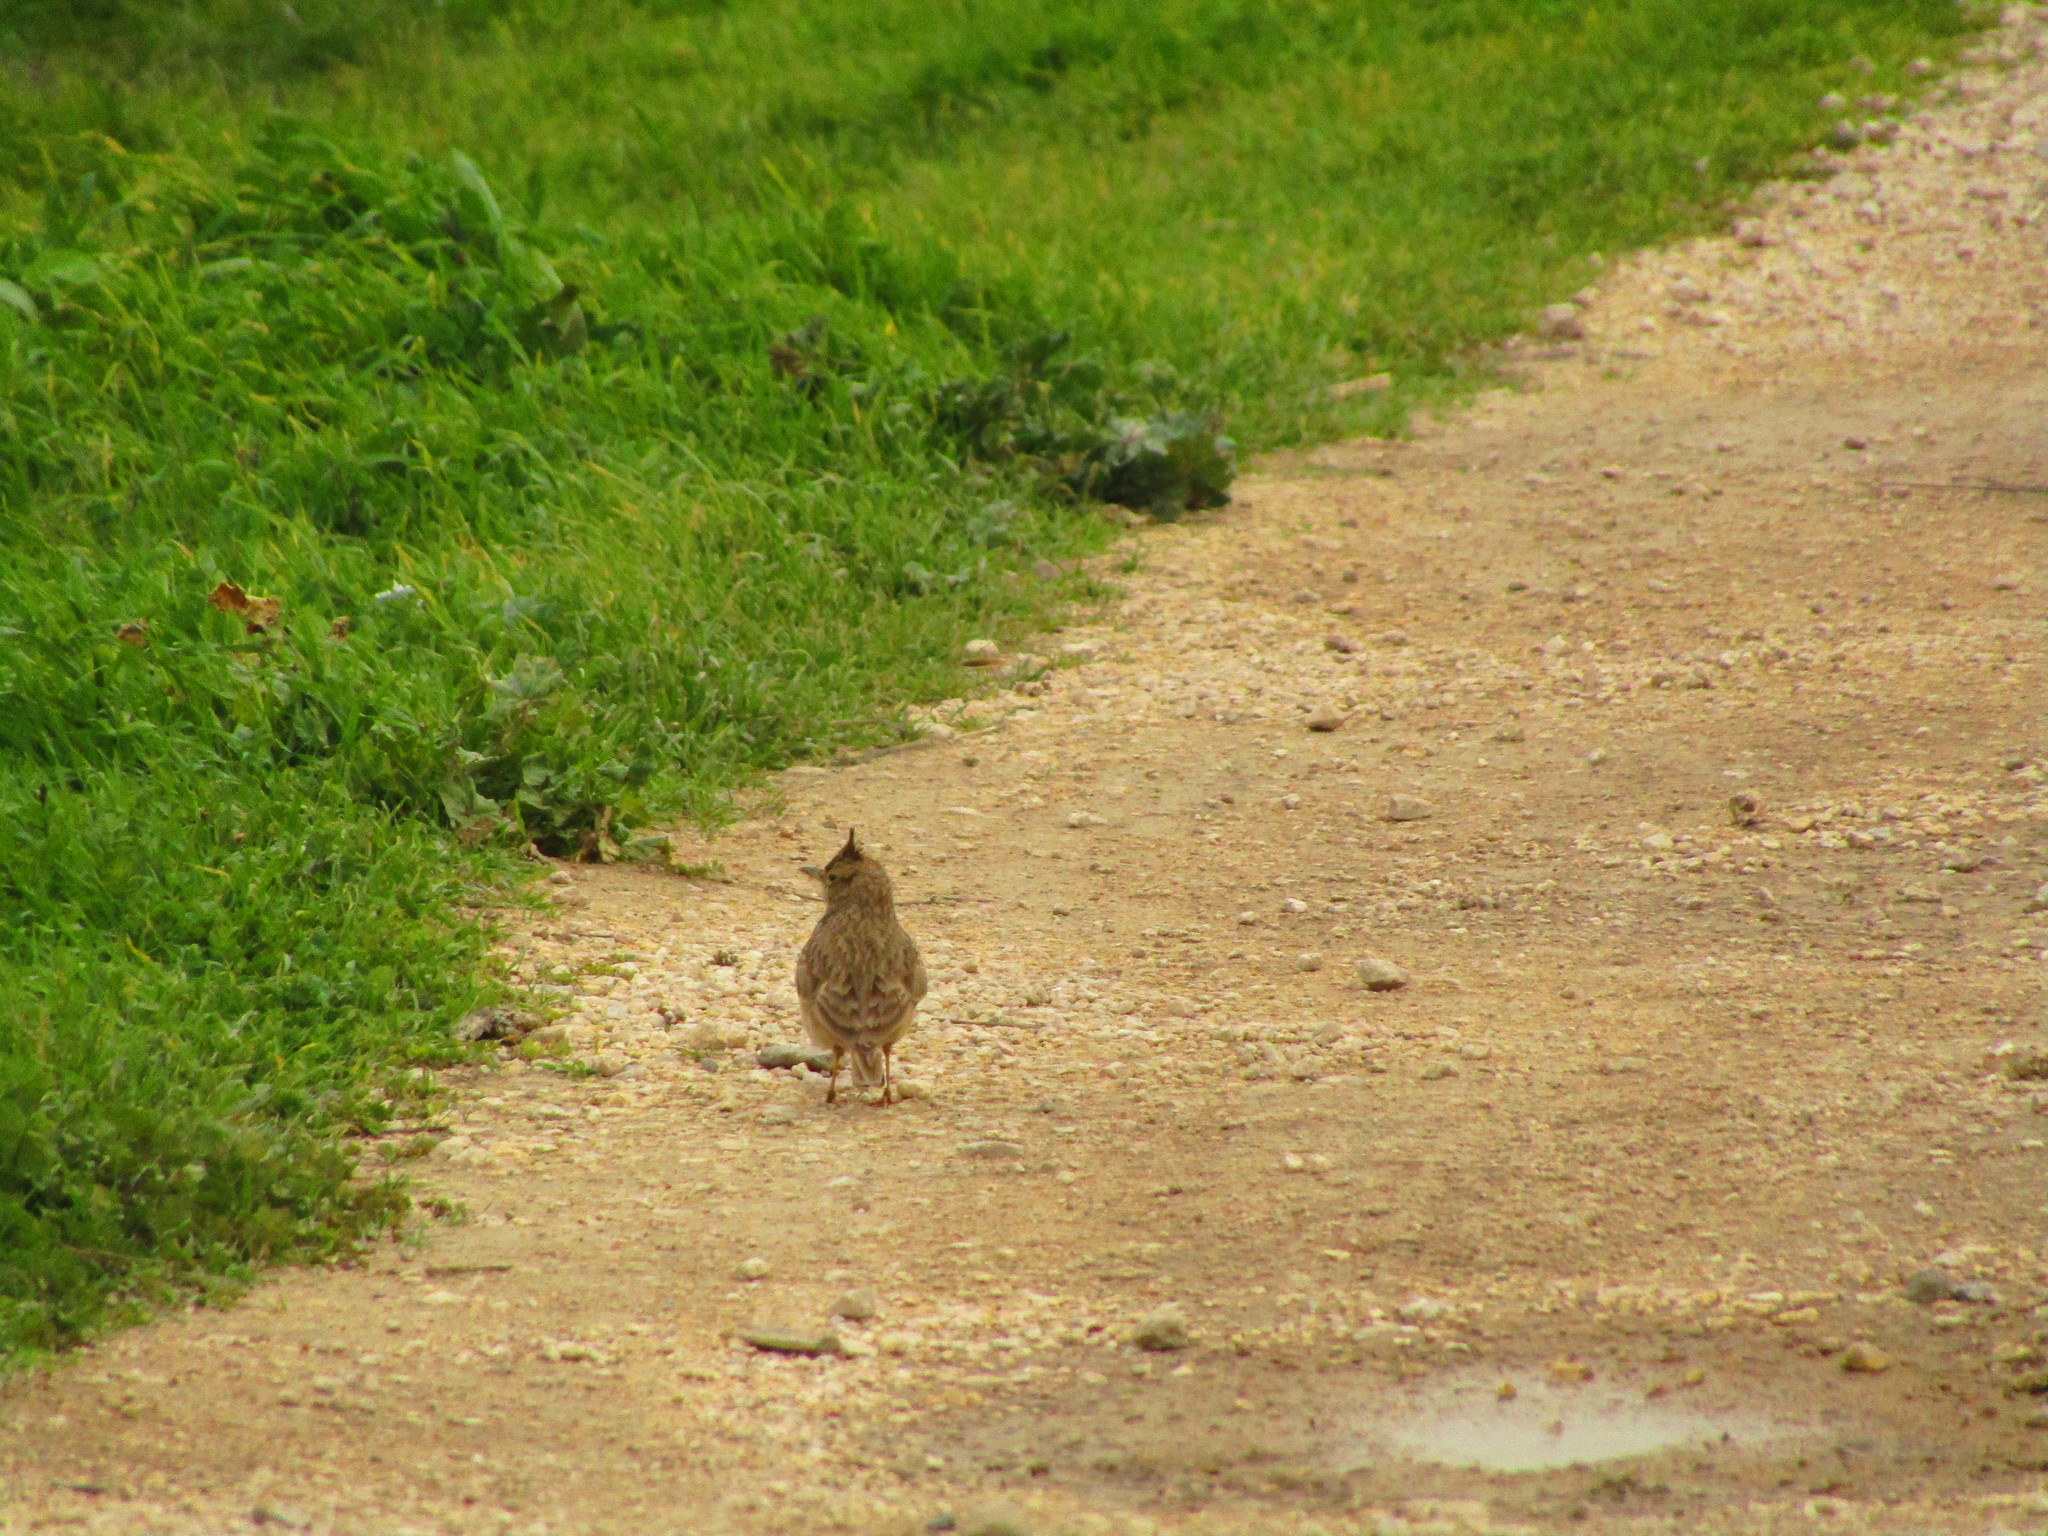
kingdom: Animalia
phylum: Chordata
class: Aves
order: Passeriformes
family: Alaudidae
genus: Galerida
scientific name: Galerida cristata
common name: Crested lark
